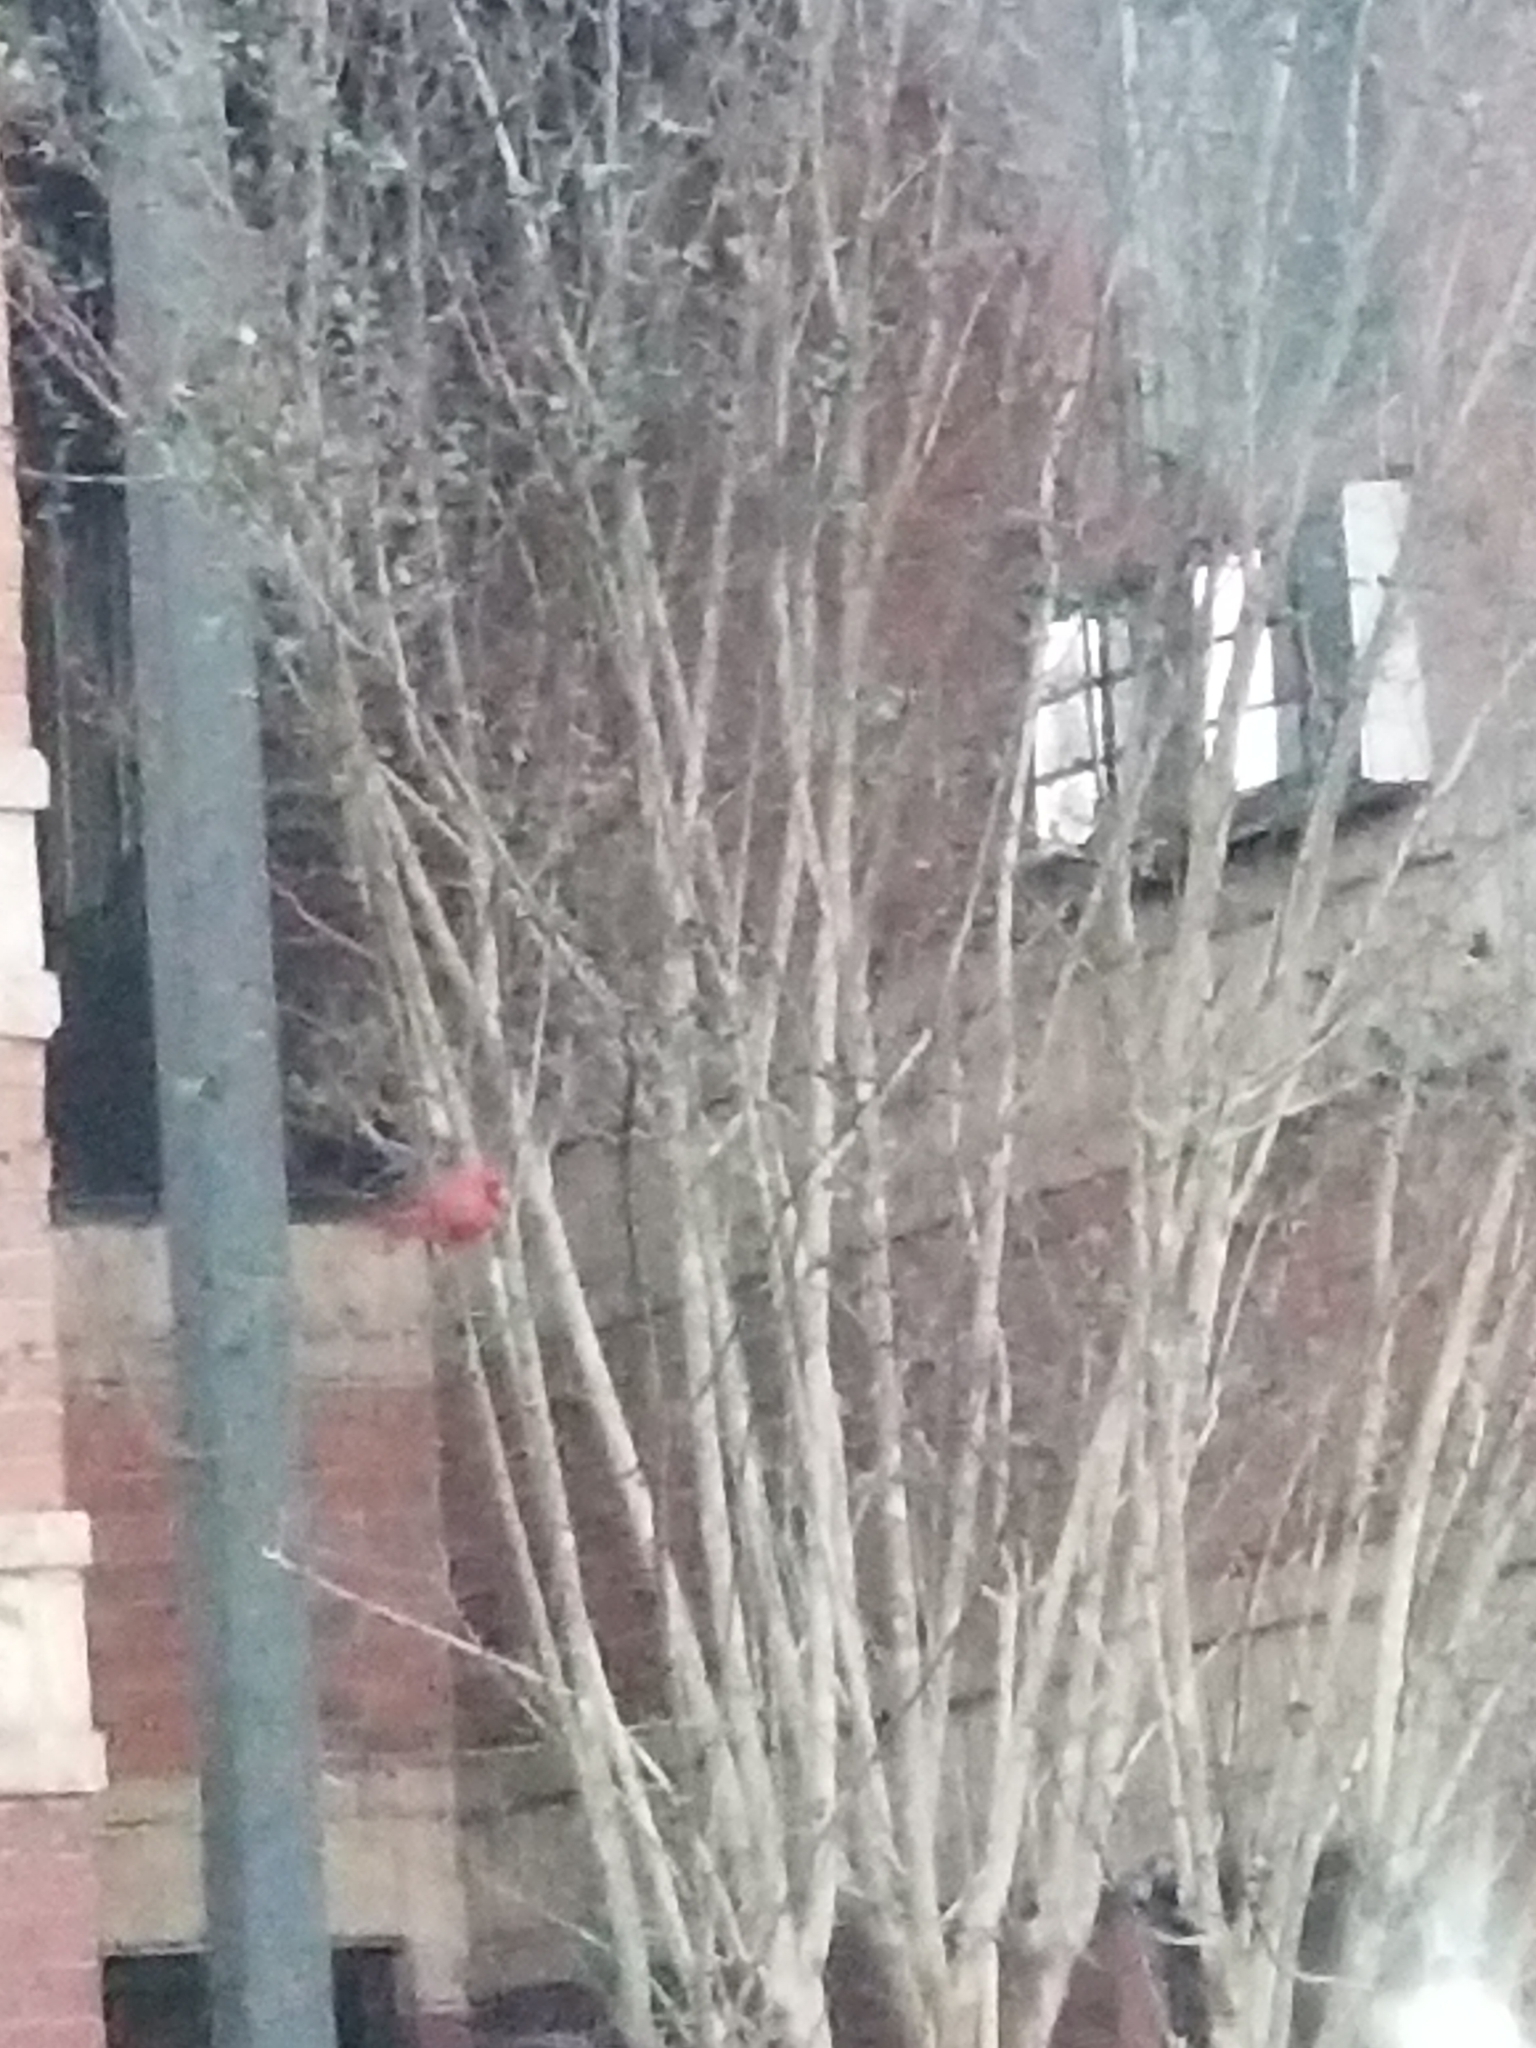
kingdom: Animalia
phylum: Chordata
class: Aves
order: Passeriformes
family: Cardinalidae
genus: Cardinalis
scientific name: Cardinalis cardinalis
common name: Northern cardinal
